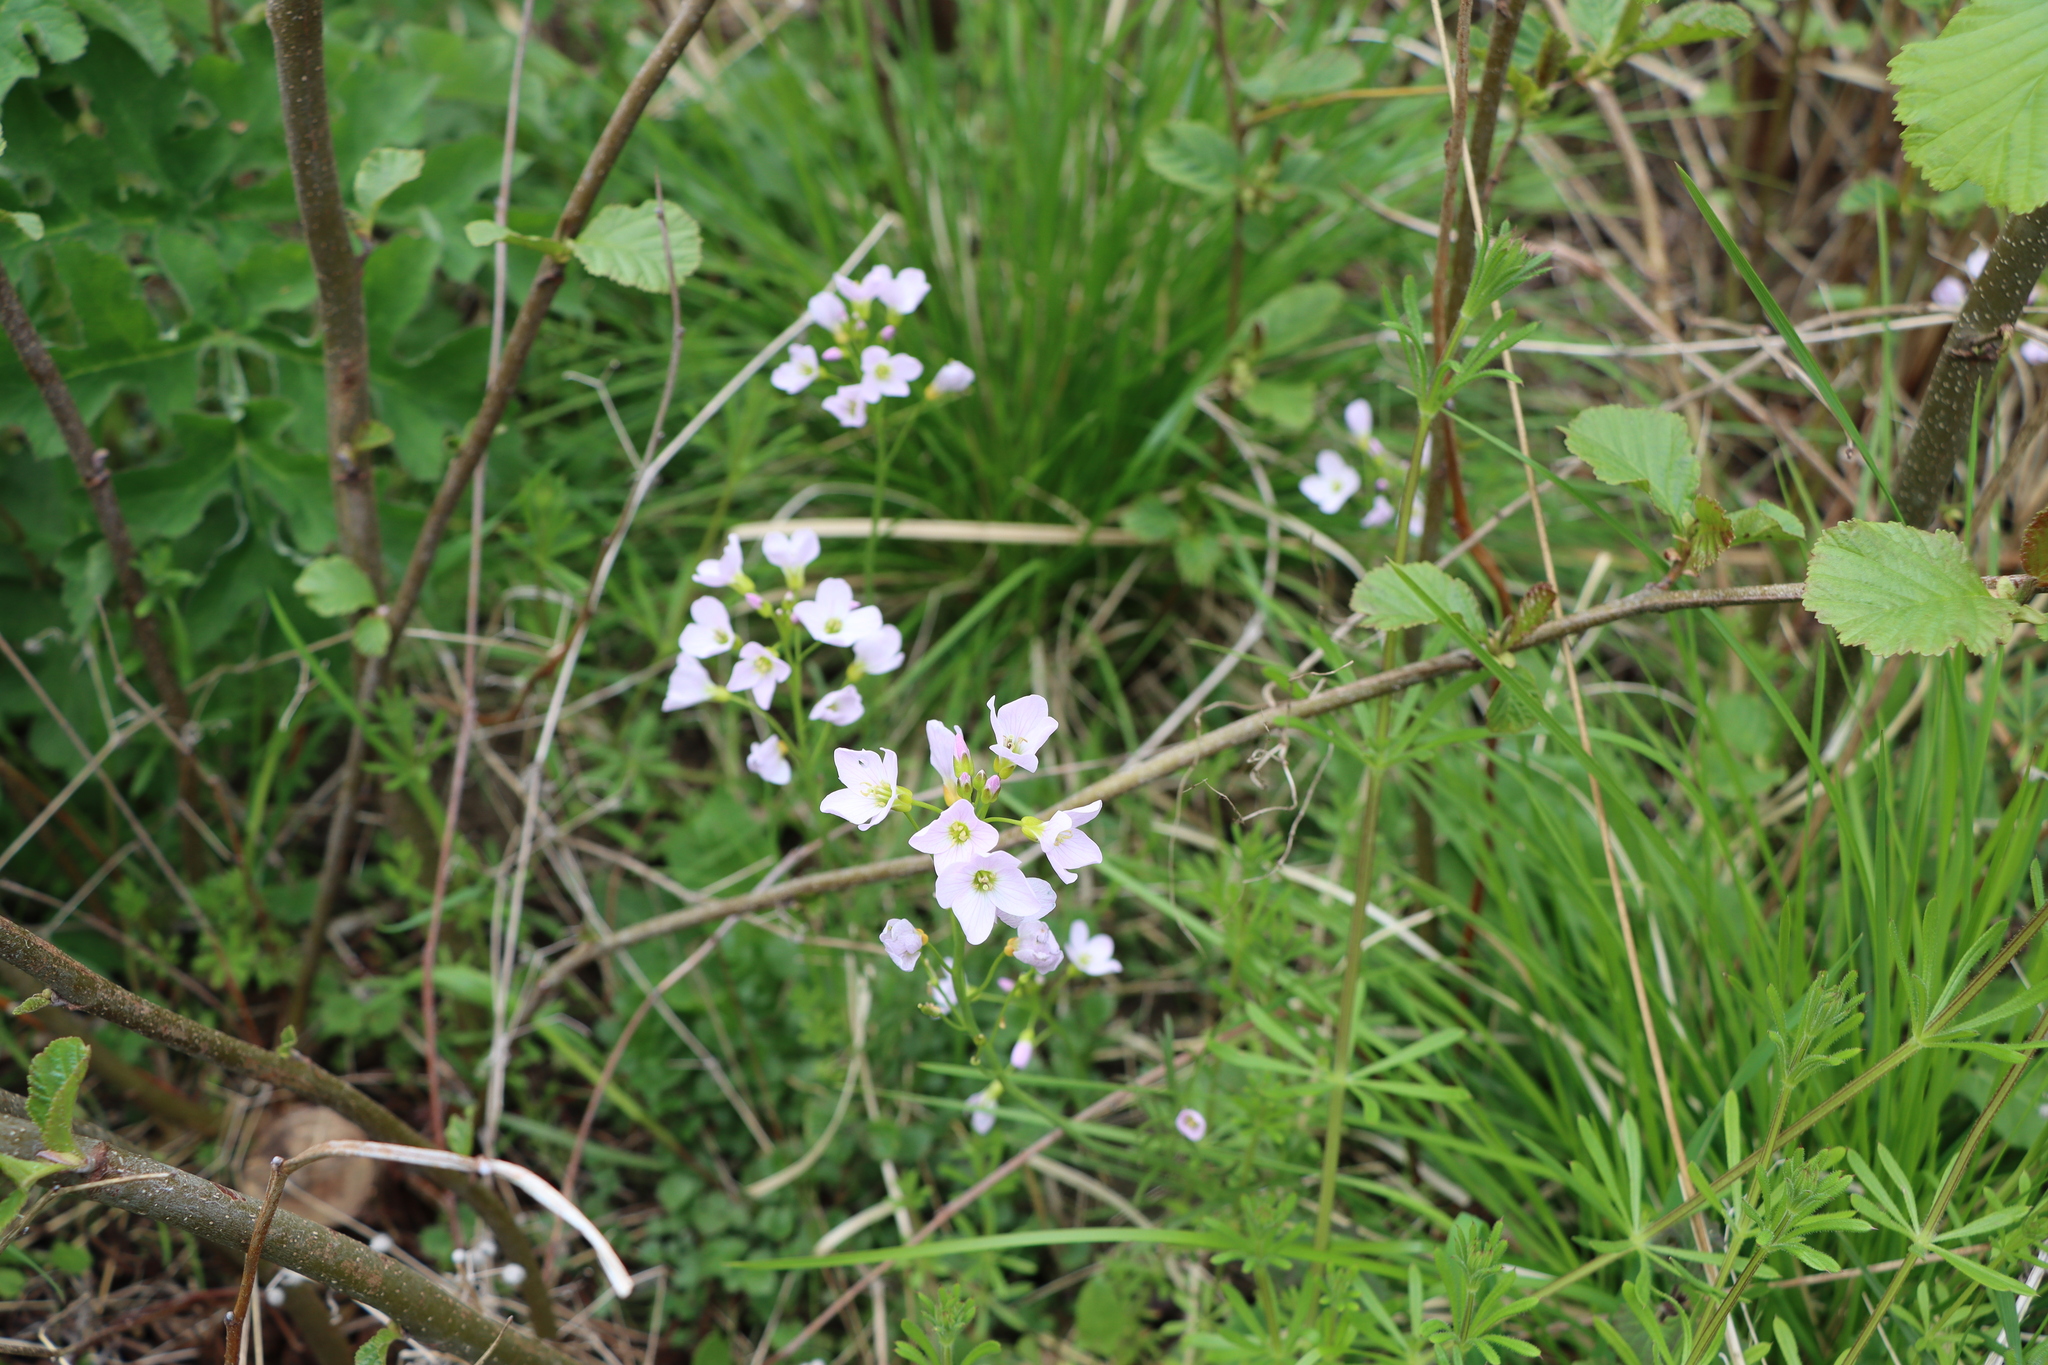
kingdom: Plantae
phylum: Tracheophyta
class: Magnoliopsida
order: Brassicales
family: Brassicaceae
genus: Cardamine
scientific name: Cardamine pratensis
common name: Cuckoo flower
